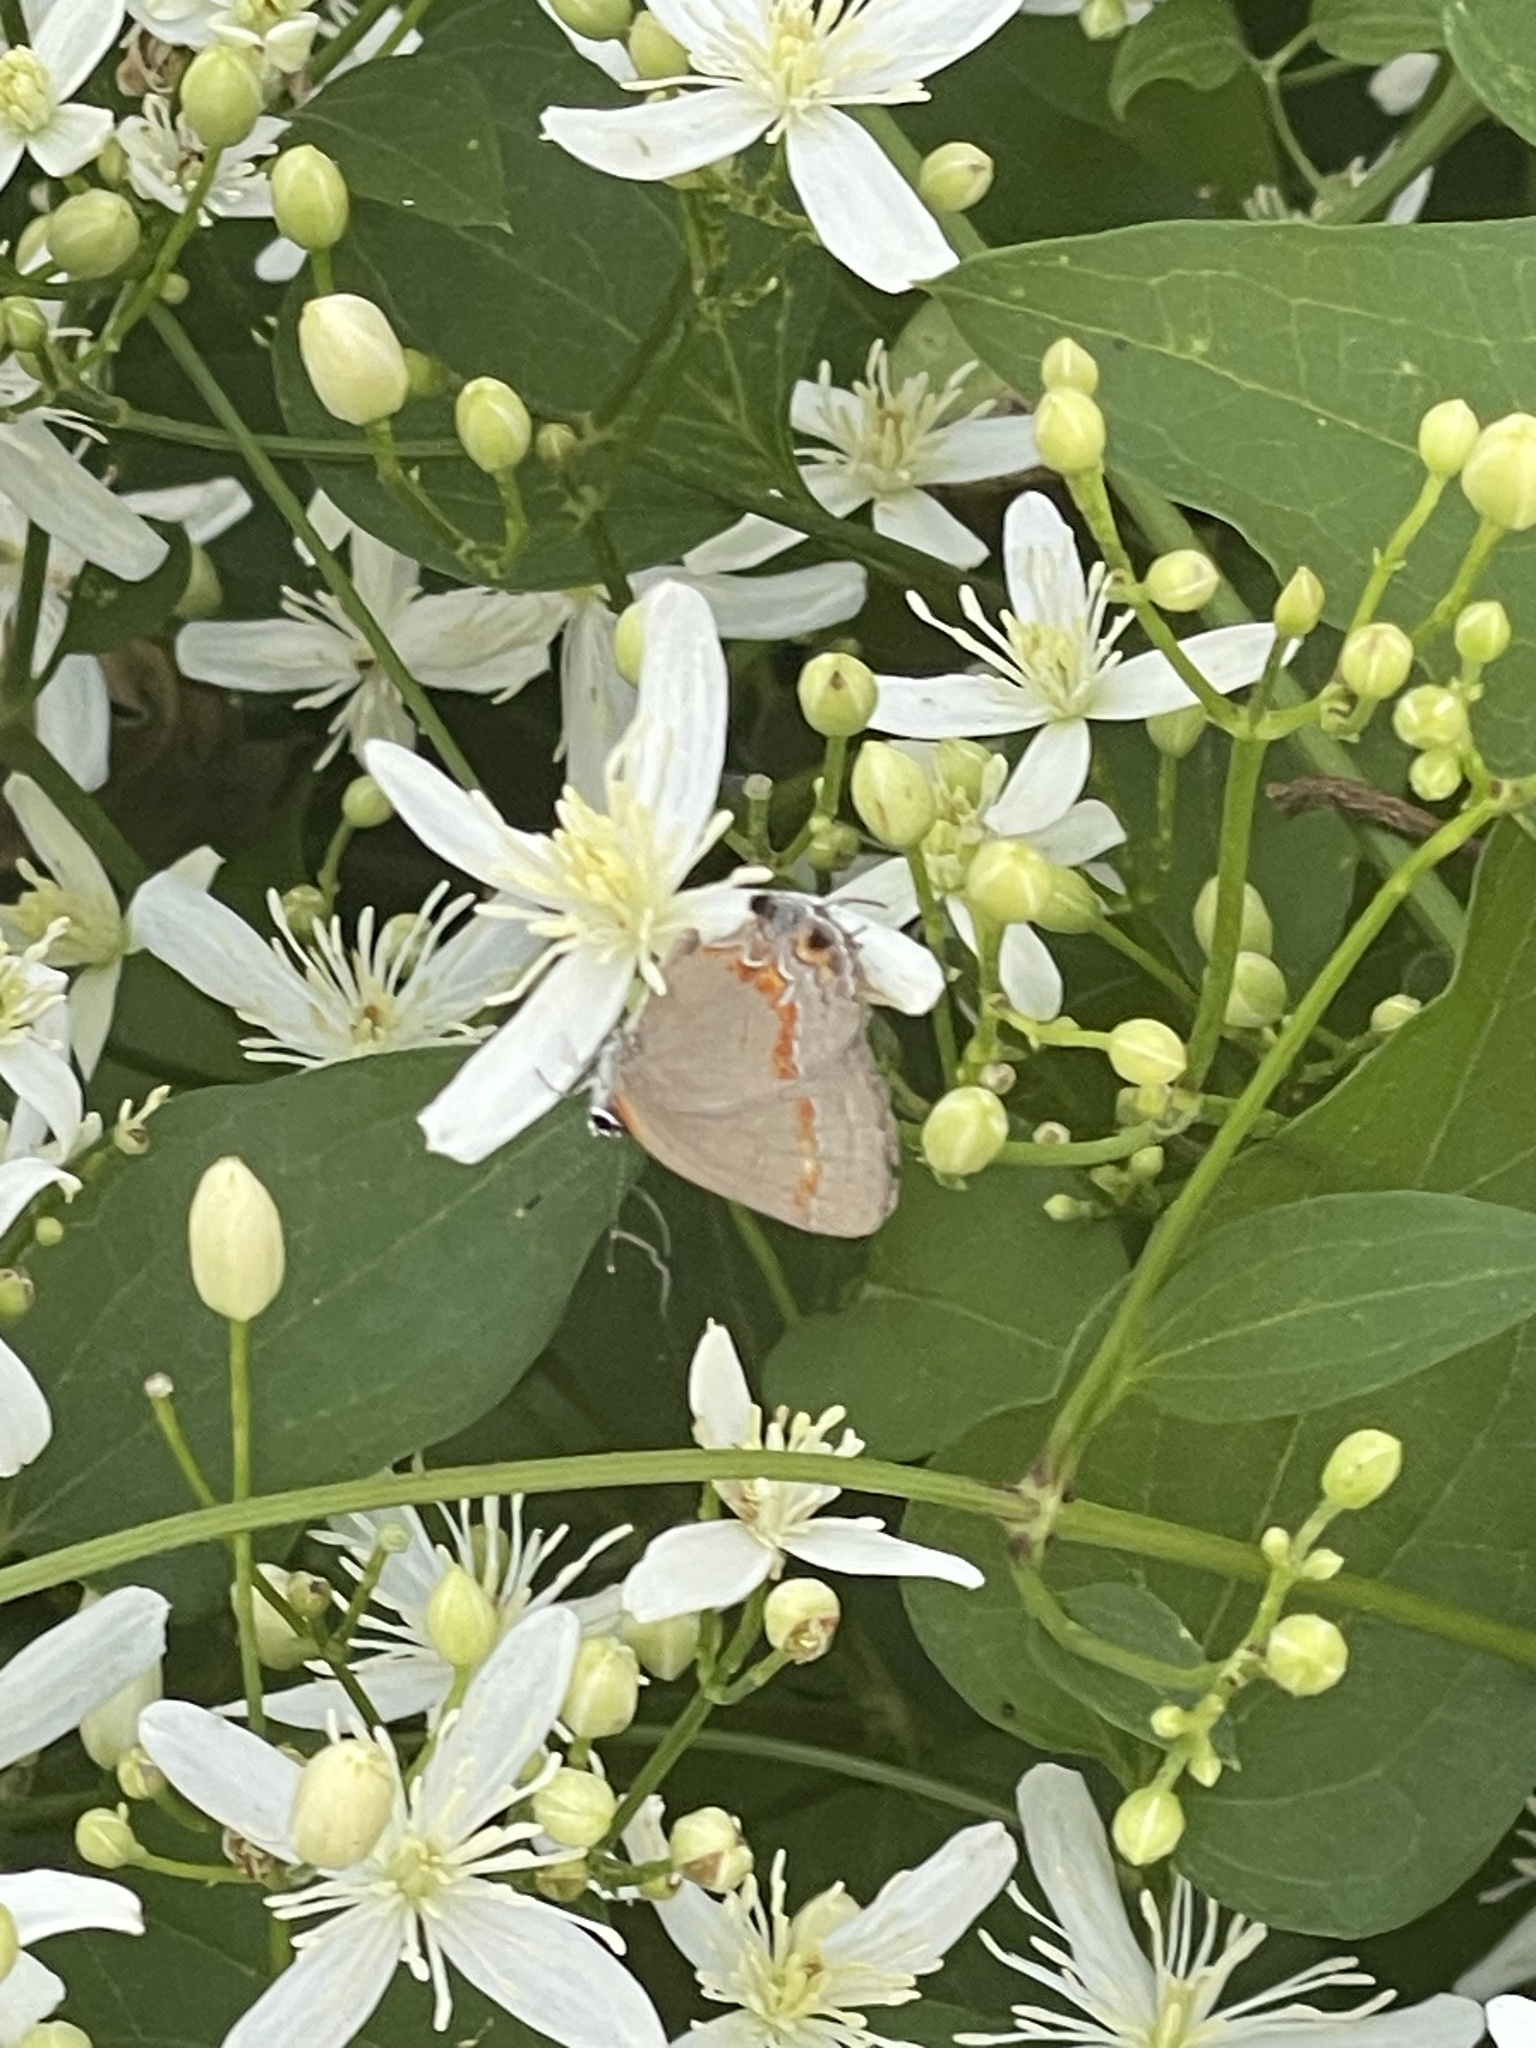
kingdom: Animalia
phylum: Arthropoda
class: Insecta
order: Lepidoptera
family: Lycaenidae
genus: Calycopis
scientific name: Calycopis cecrops
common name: Red-banded hairstreak
